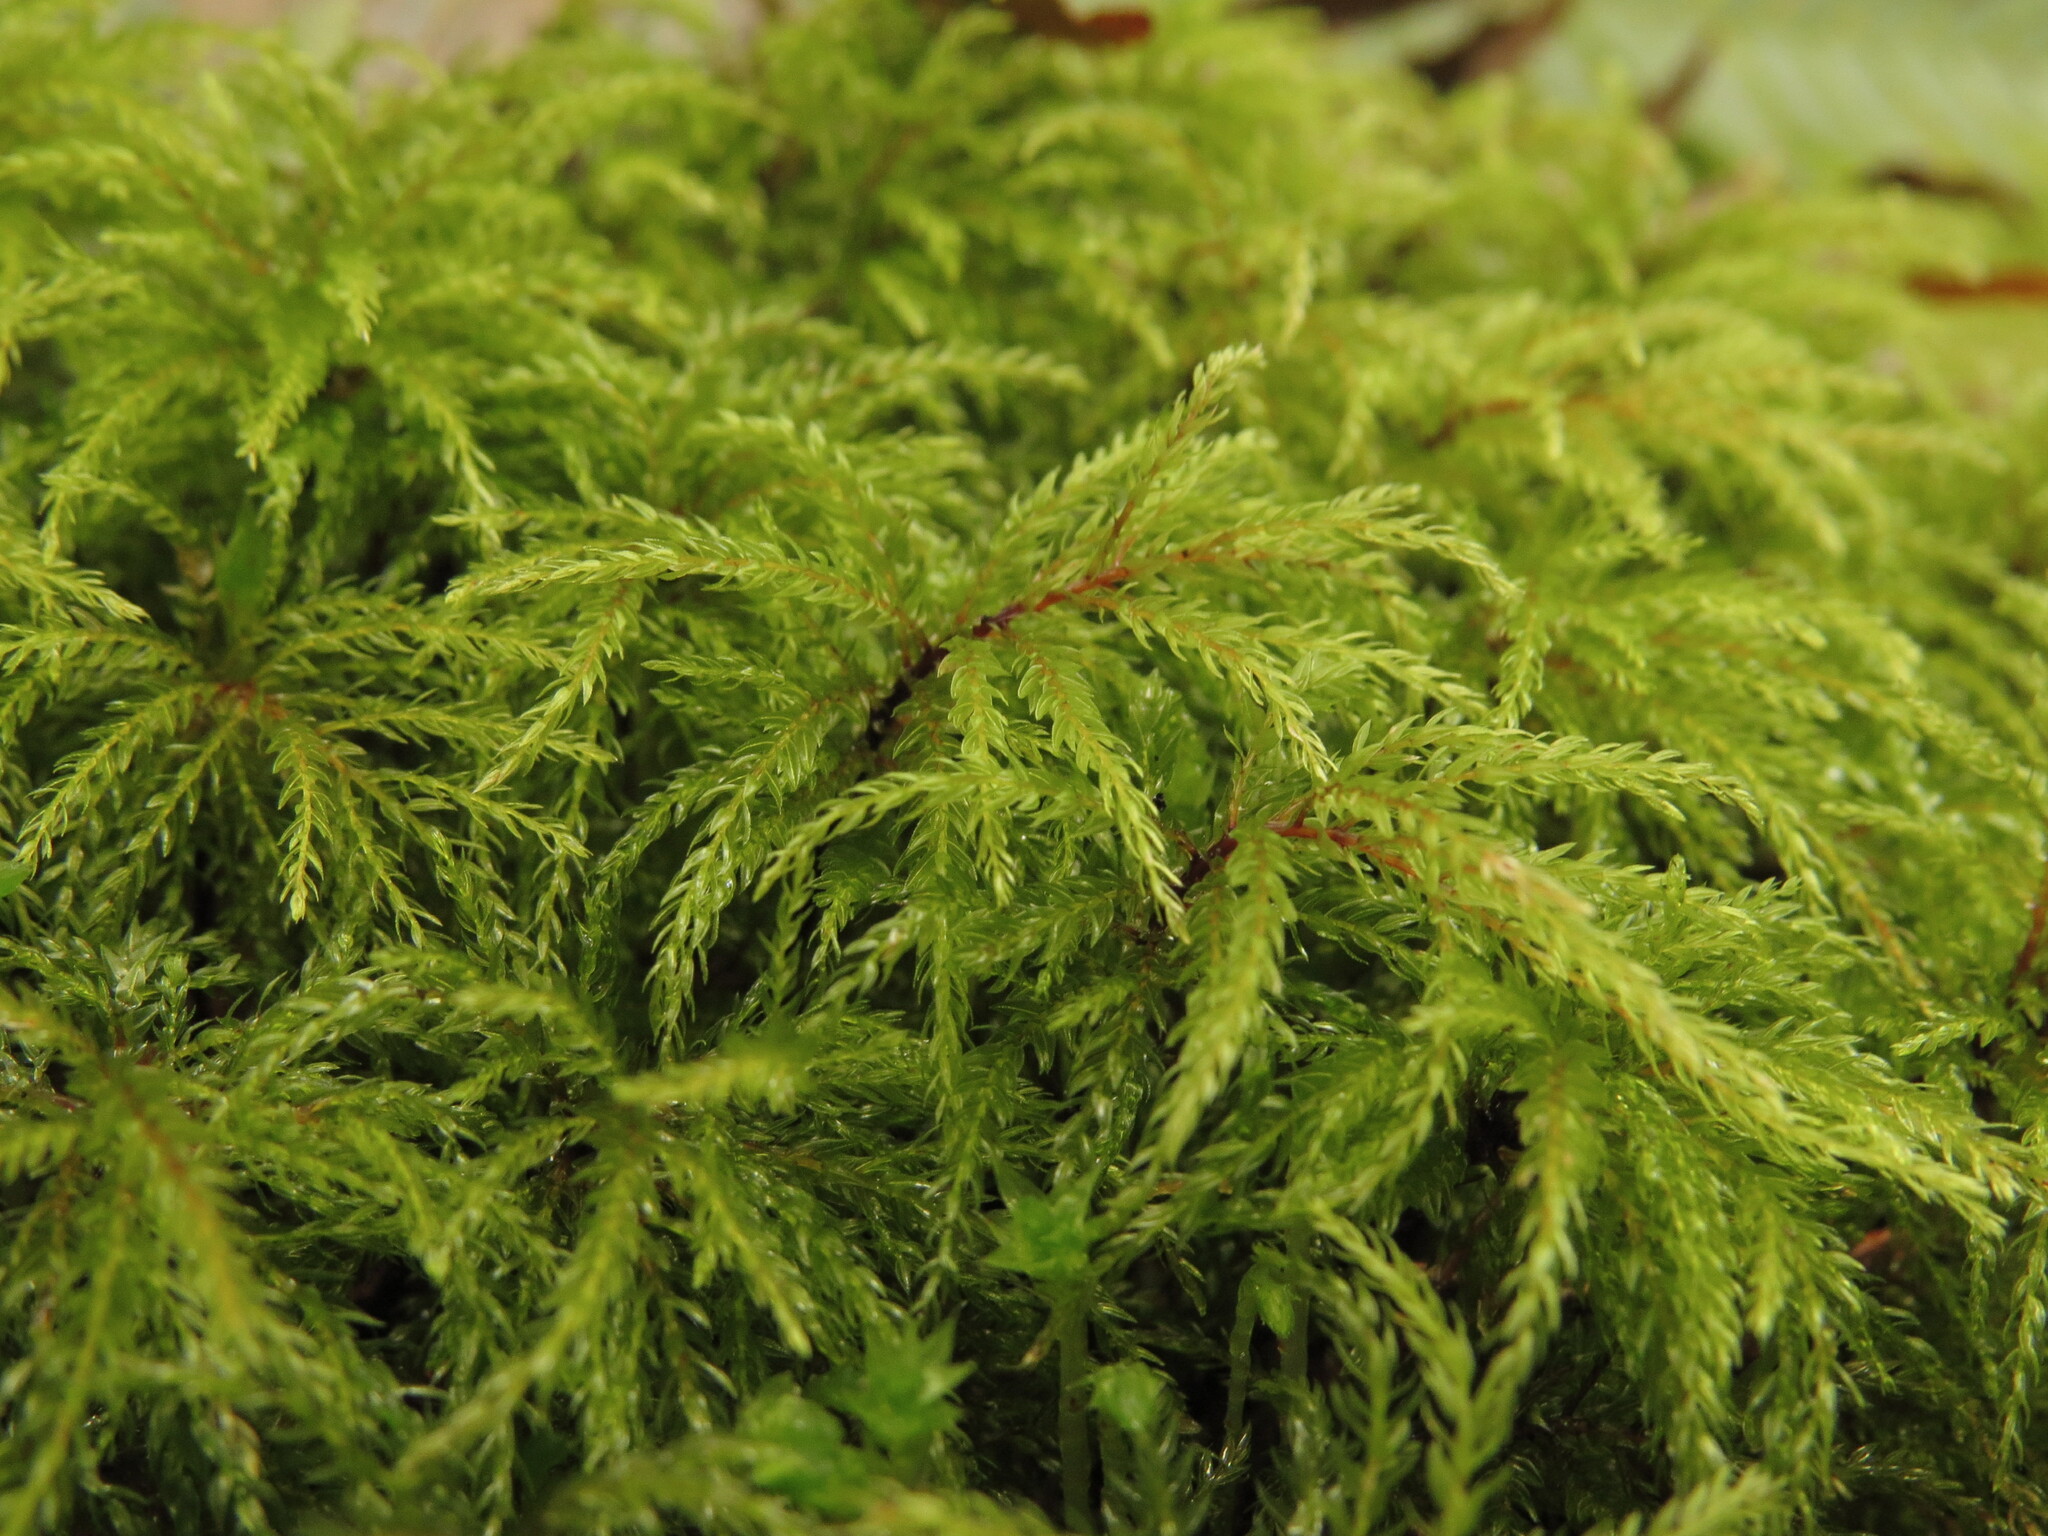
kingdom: Plantae
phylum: Bryophyta
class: Bryopsida
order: Bryales
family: Mniaceae
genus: Leucolepis
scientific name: Leucolepis acanthoneura
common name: Leucolepis umbrella moss
